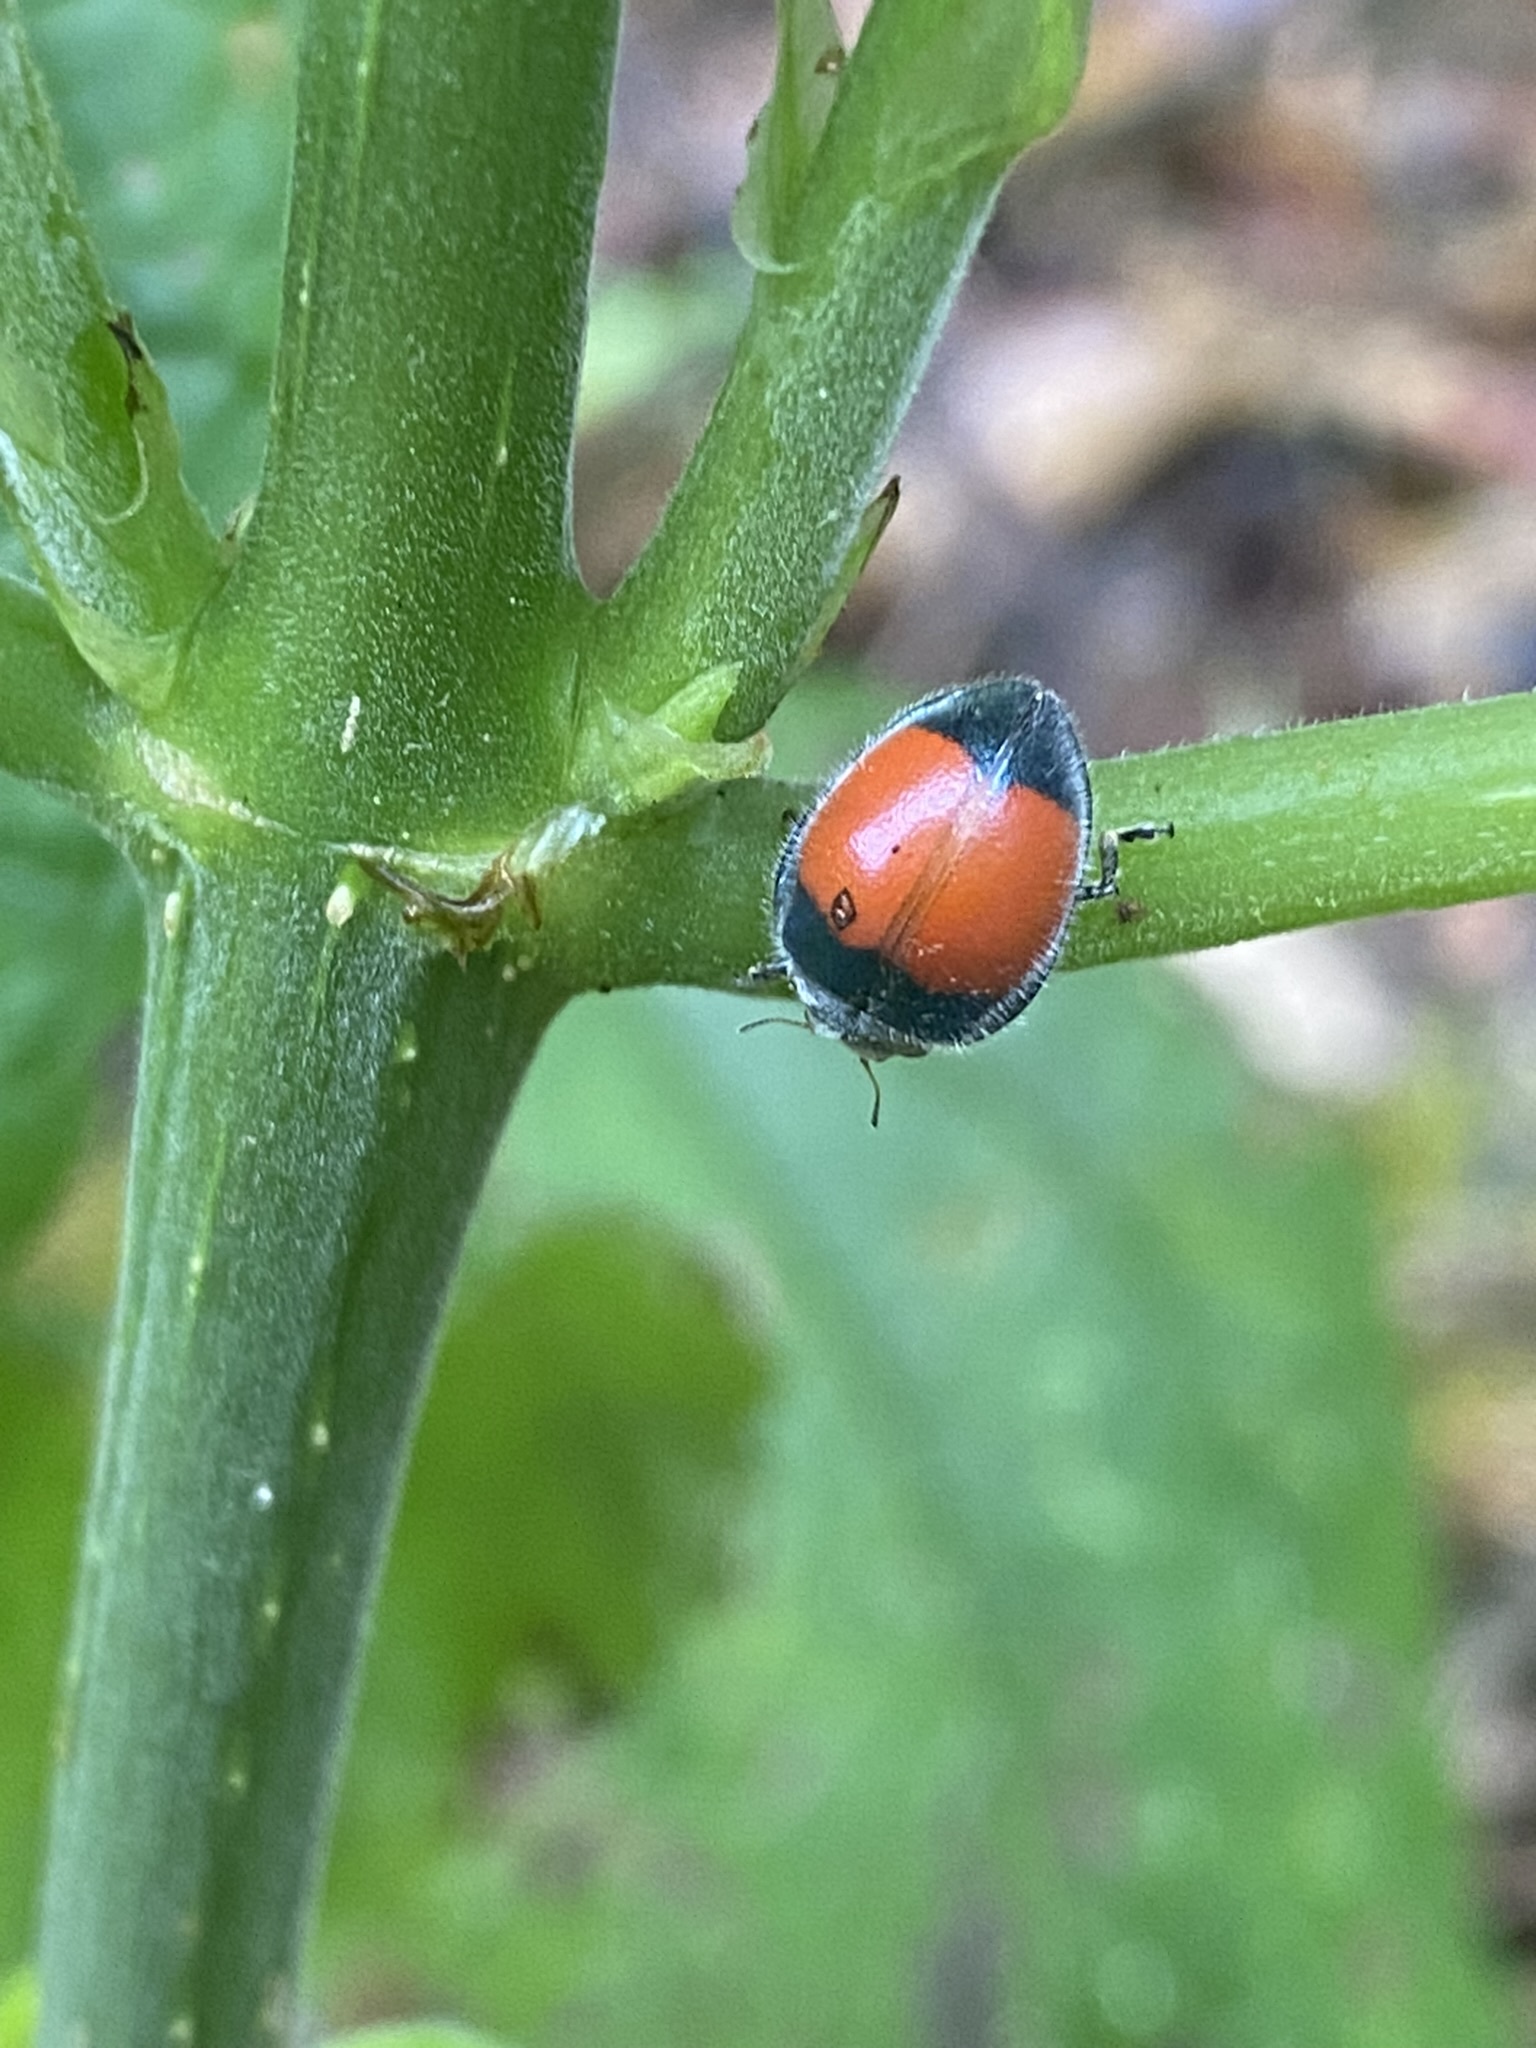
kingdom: Animalia
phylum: Arthropoda
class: Insecta
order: Coleoptera
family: Coccinellidae
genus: Toxotoma
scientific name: Toxotoma
